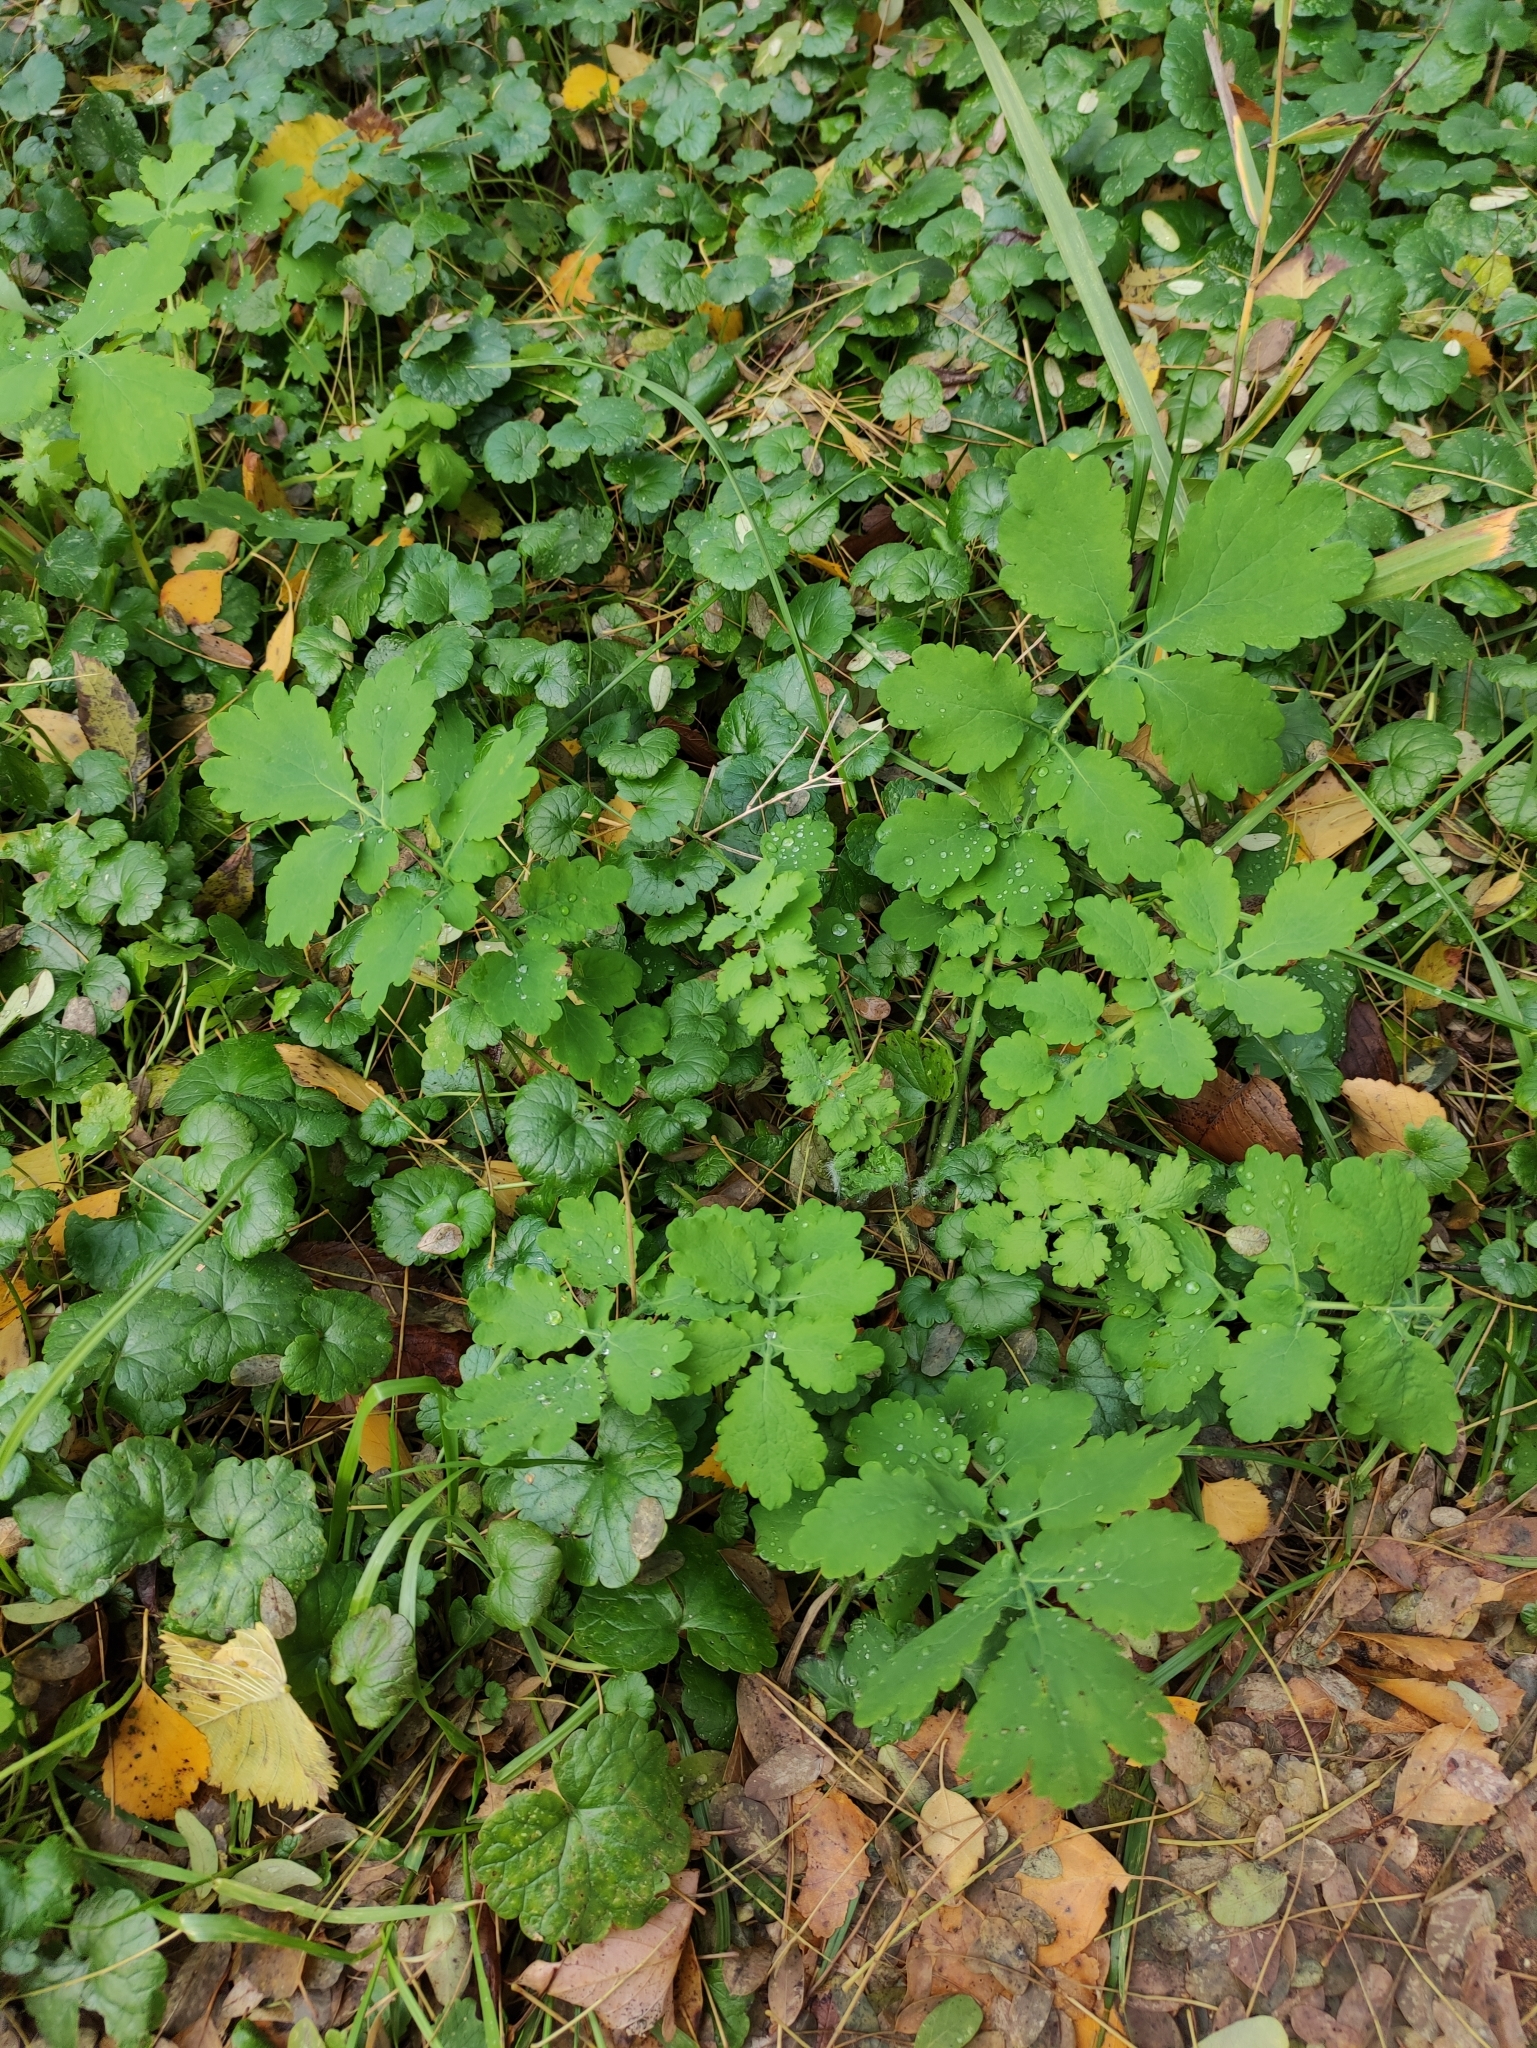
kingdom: Plantae
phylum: Tracheophyta
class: Magnoliopsida
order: Ranunculales
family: Papaveraceae
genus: Chelidonium
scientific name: Chelidonium majus
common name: Greater celandine
